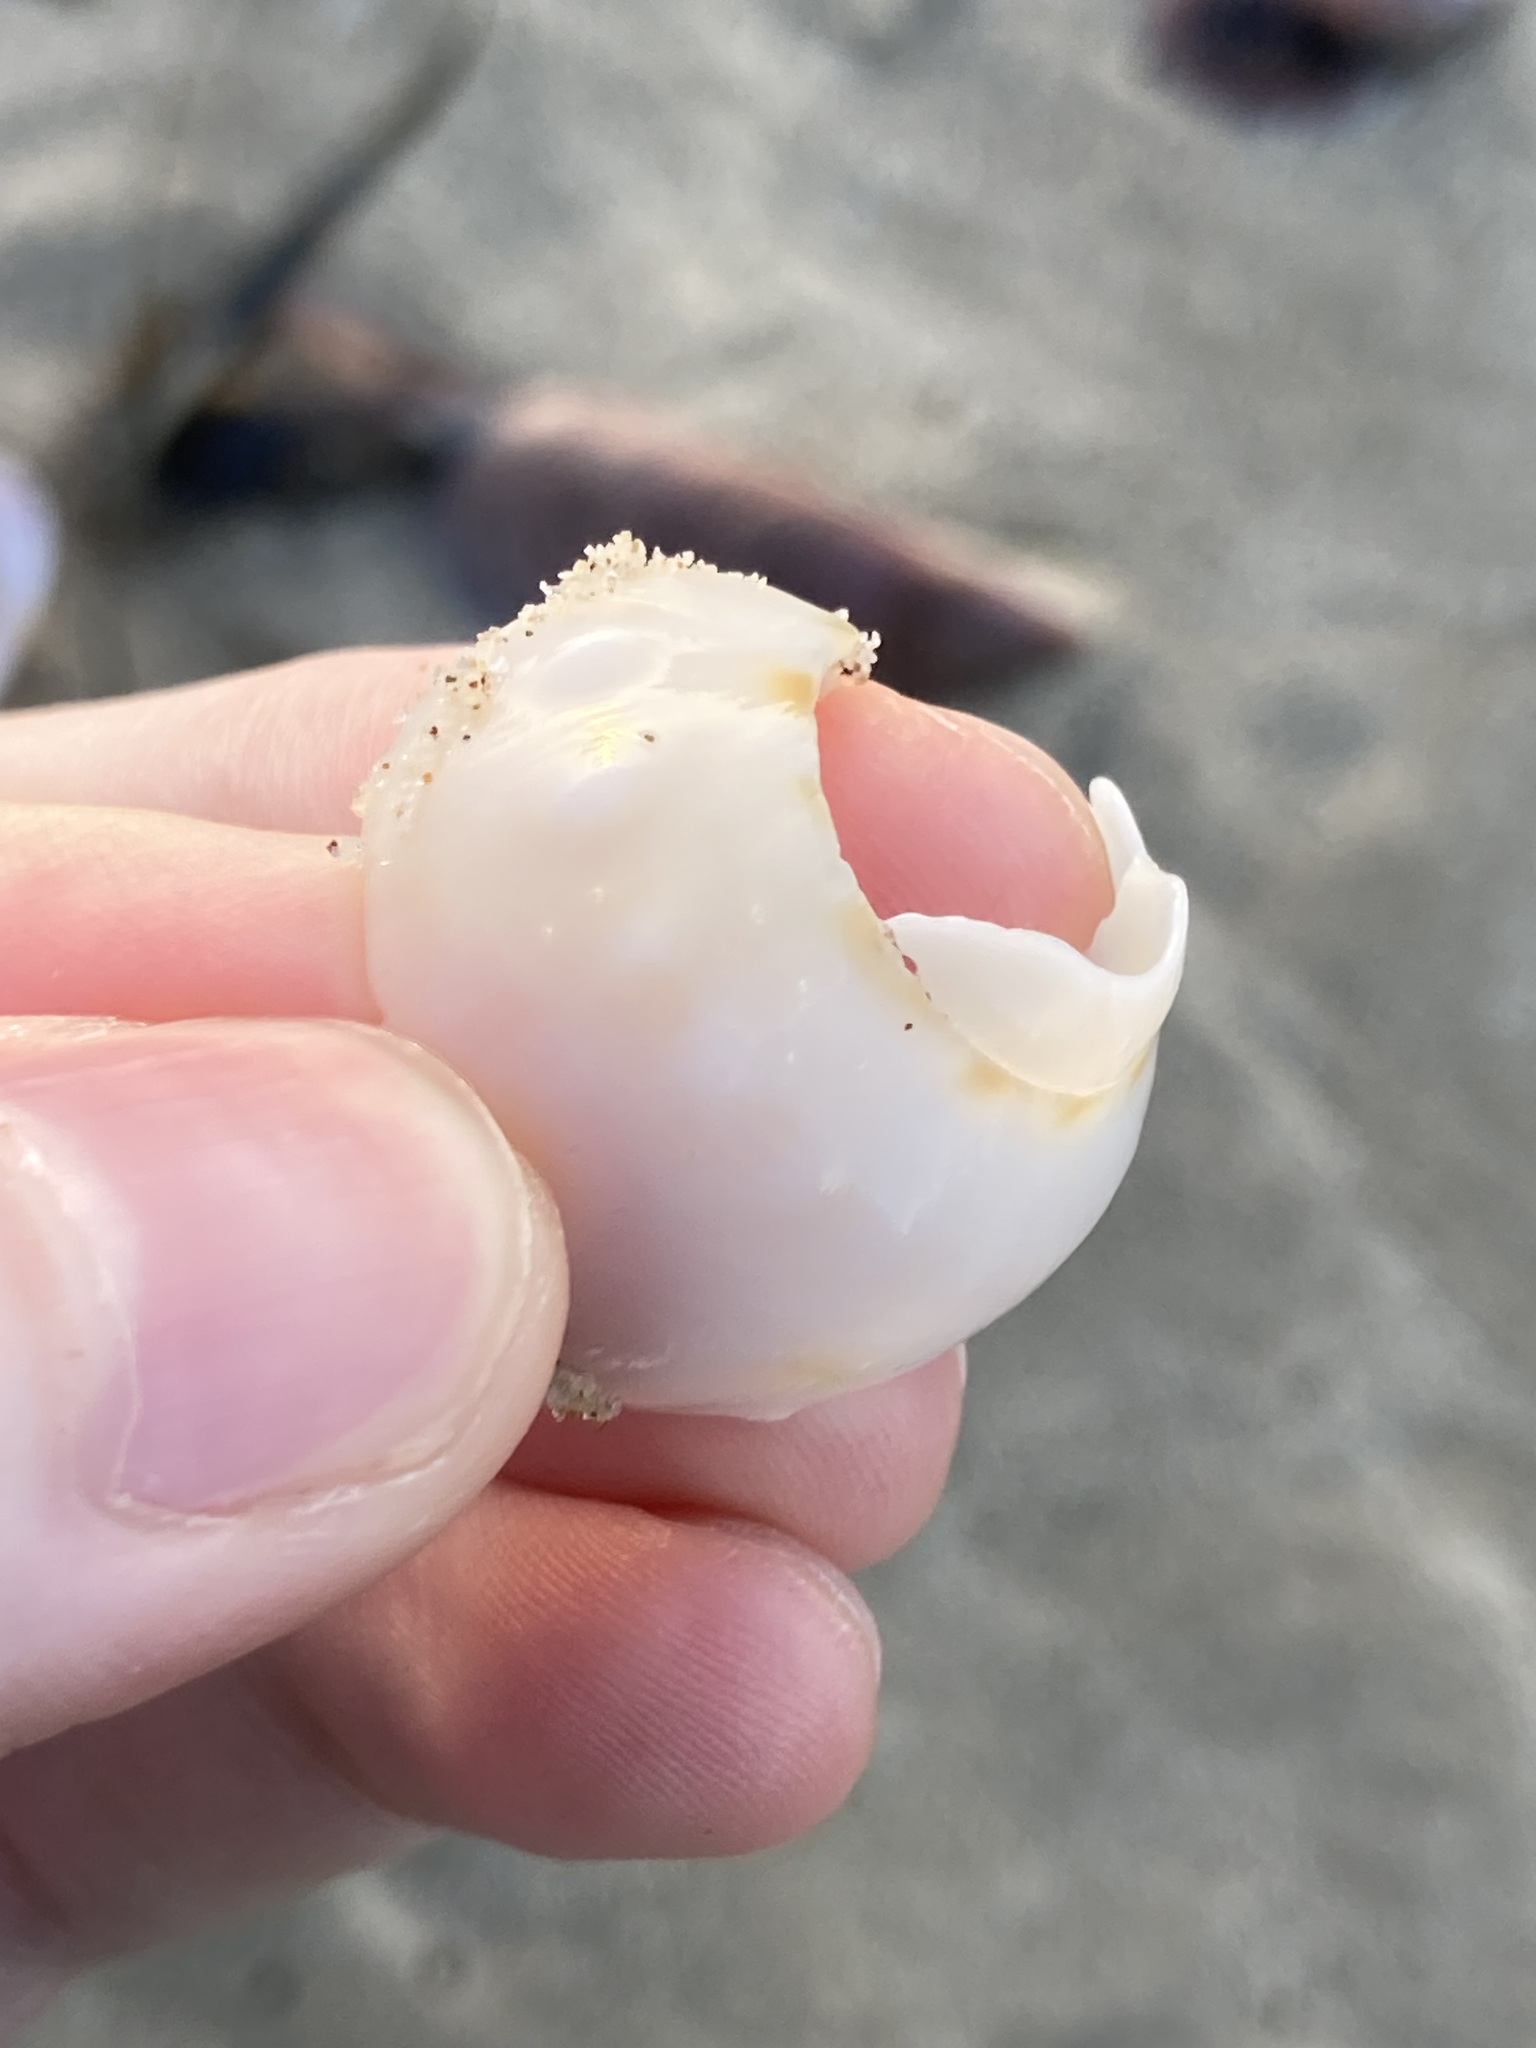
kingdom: Animalia
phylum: Mollusca
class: Gastropoda
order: Littorinimorpha
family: Cassidae
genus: Semicassis
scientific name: Semicassis labiata
